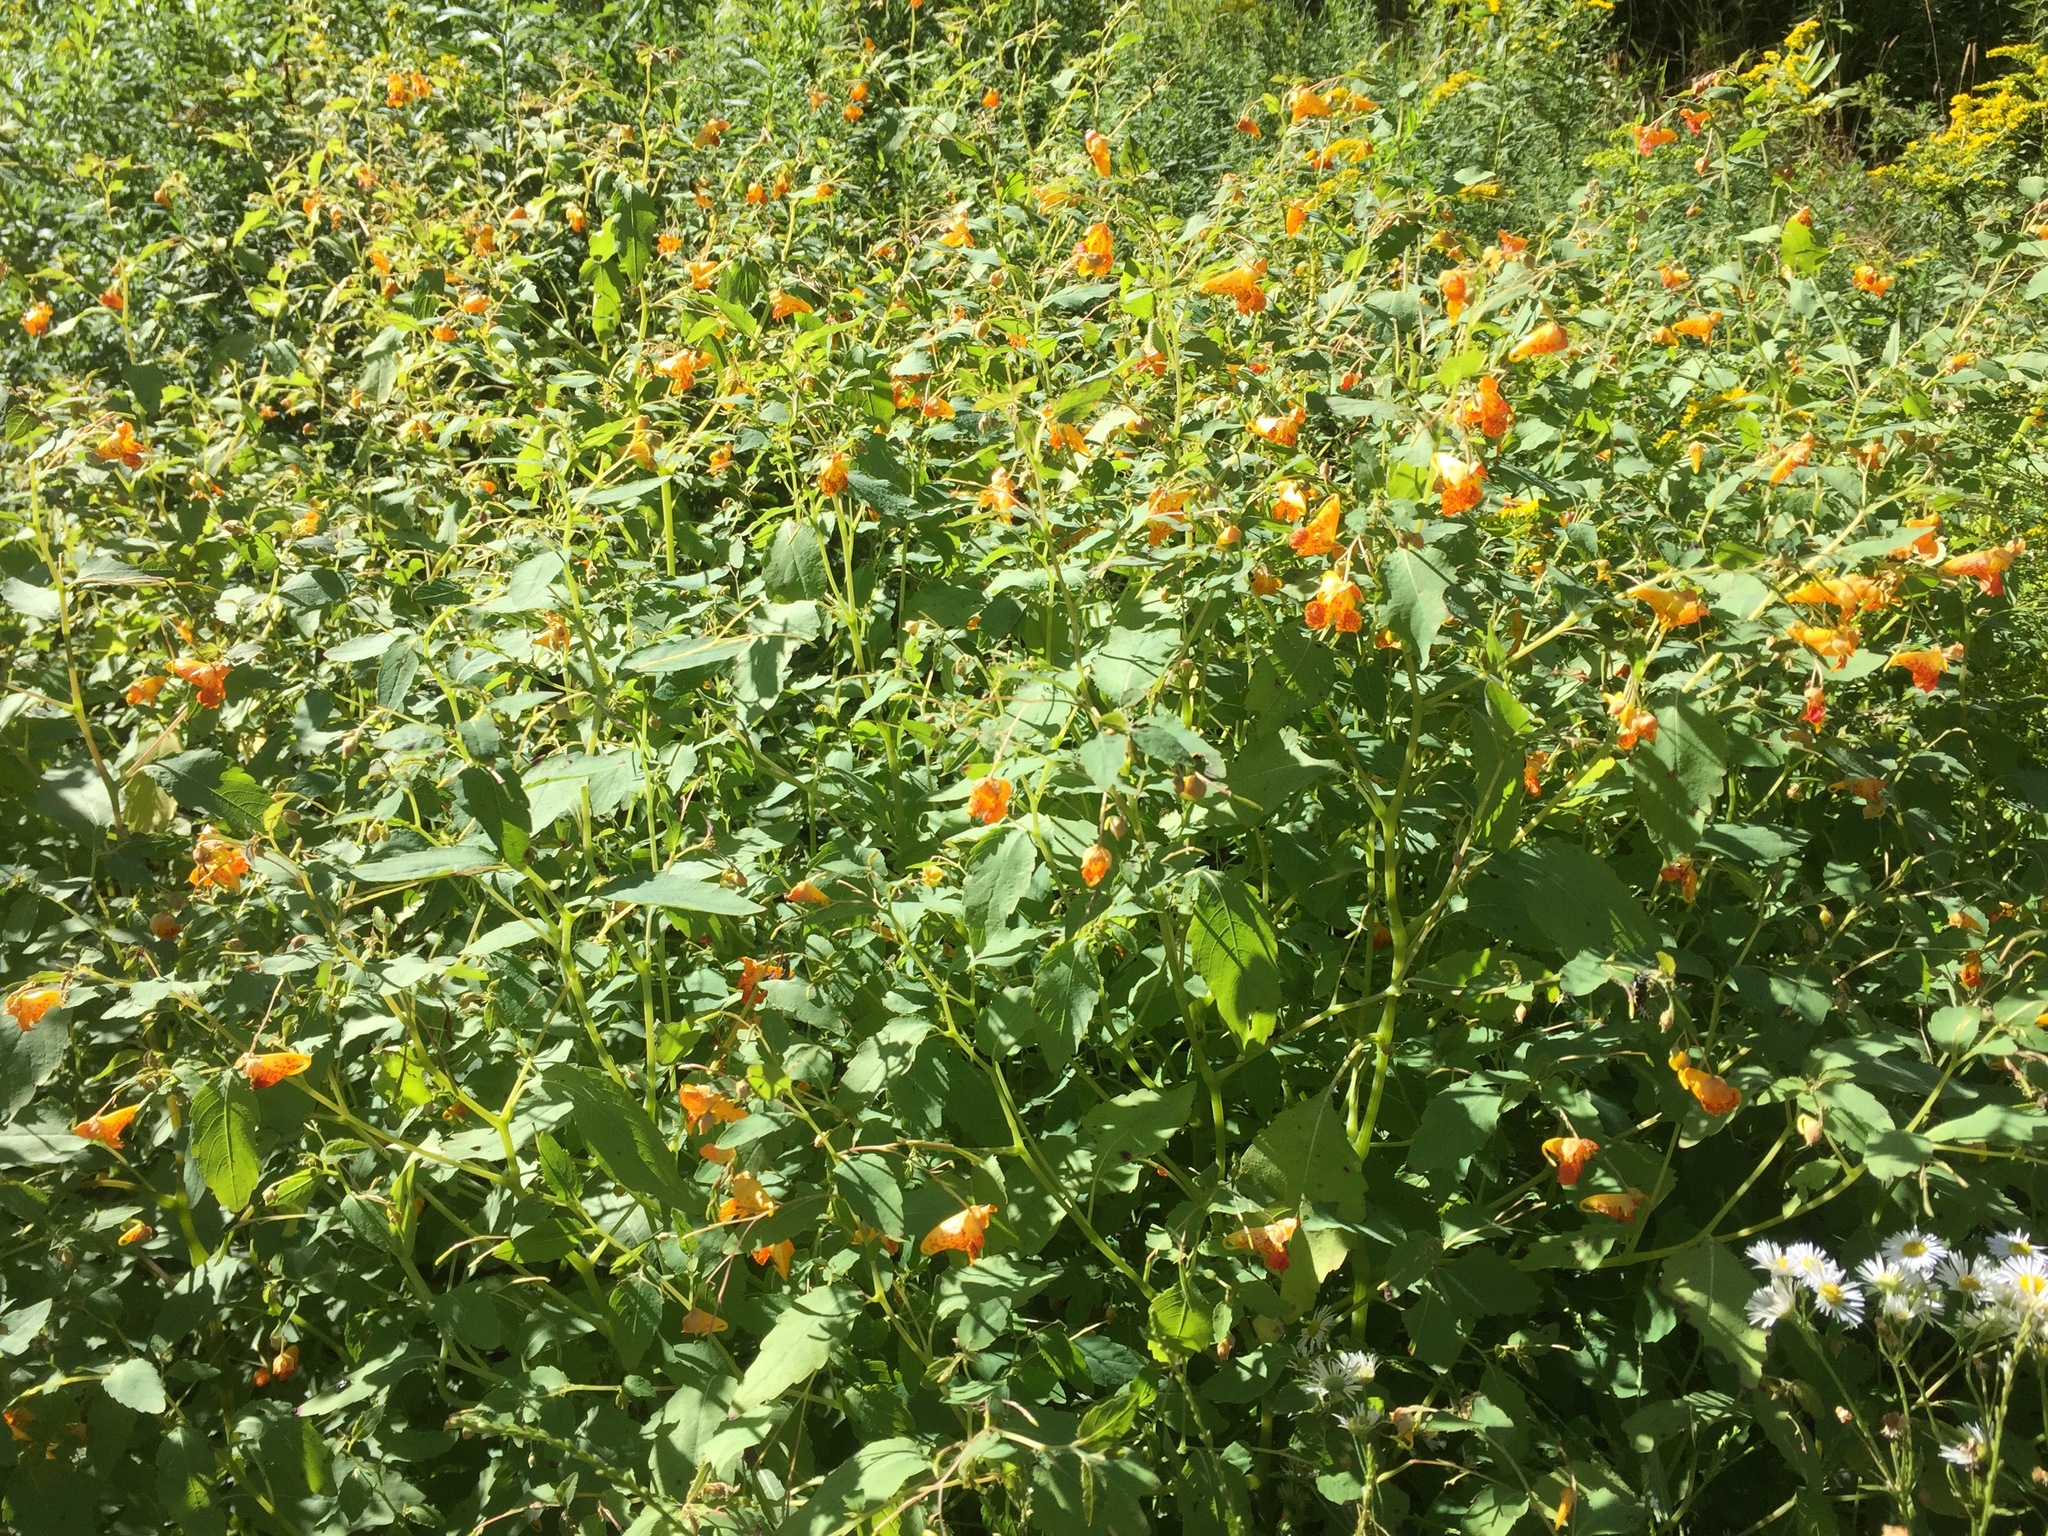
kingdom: Plantae
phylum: Tracheophyta
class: Magnoliopsida
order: Ericales
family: Balsaminaceae
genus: Impatiens
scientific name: Impatiens capensis
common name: Orange balsam
